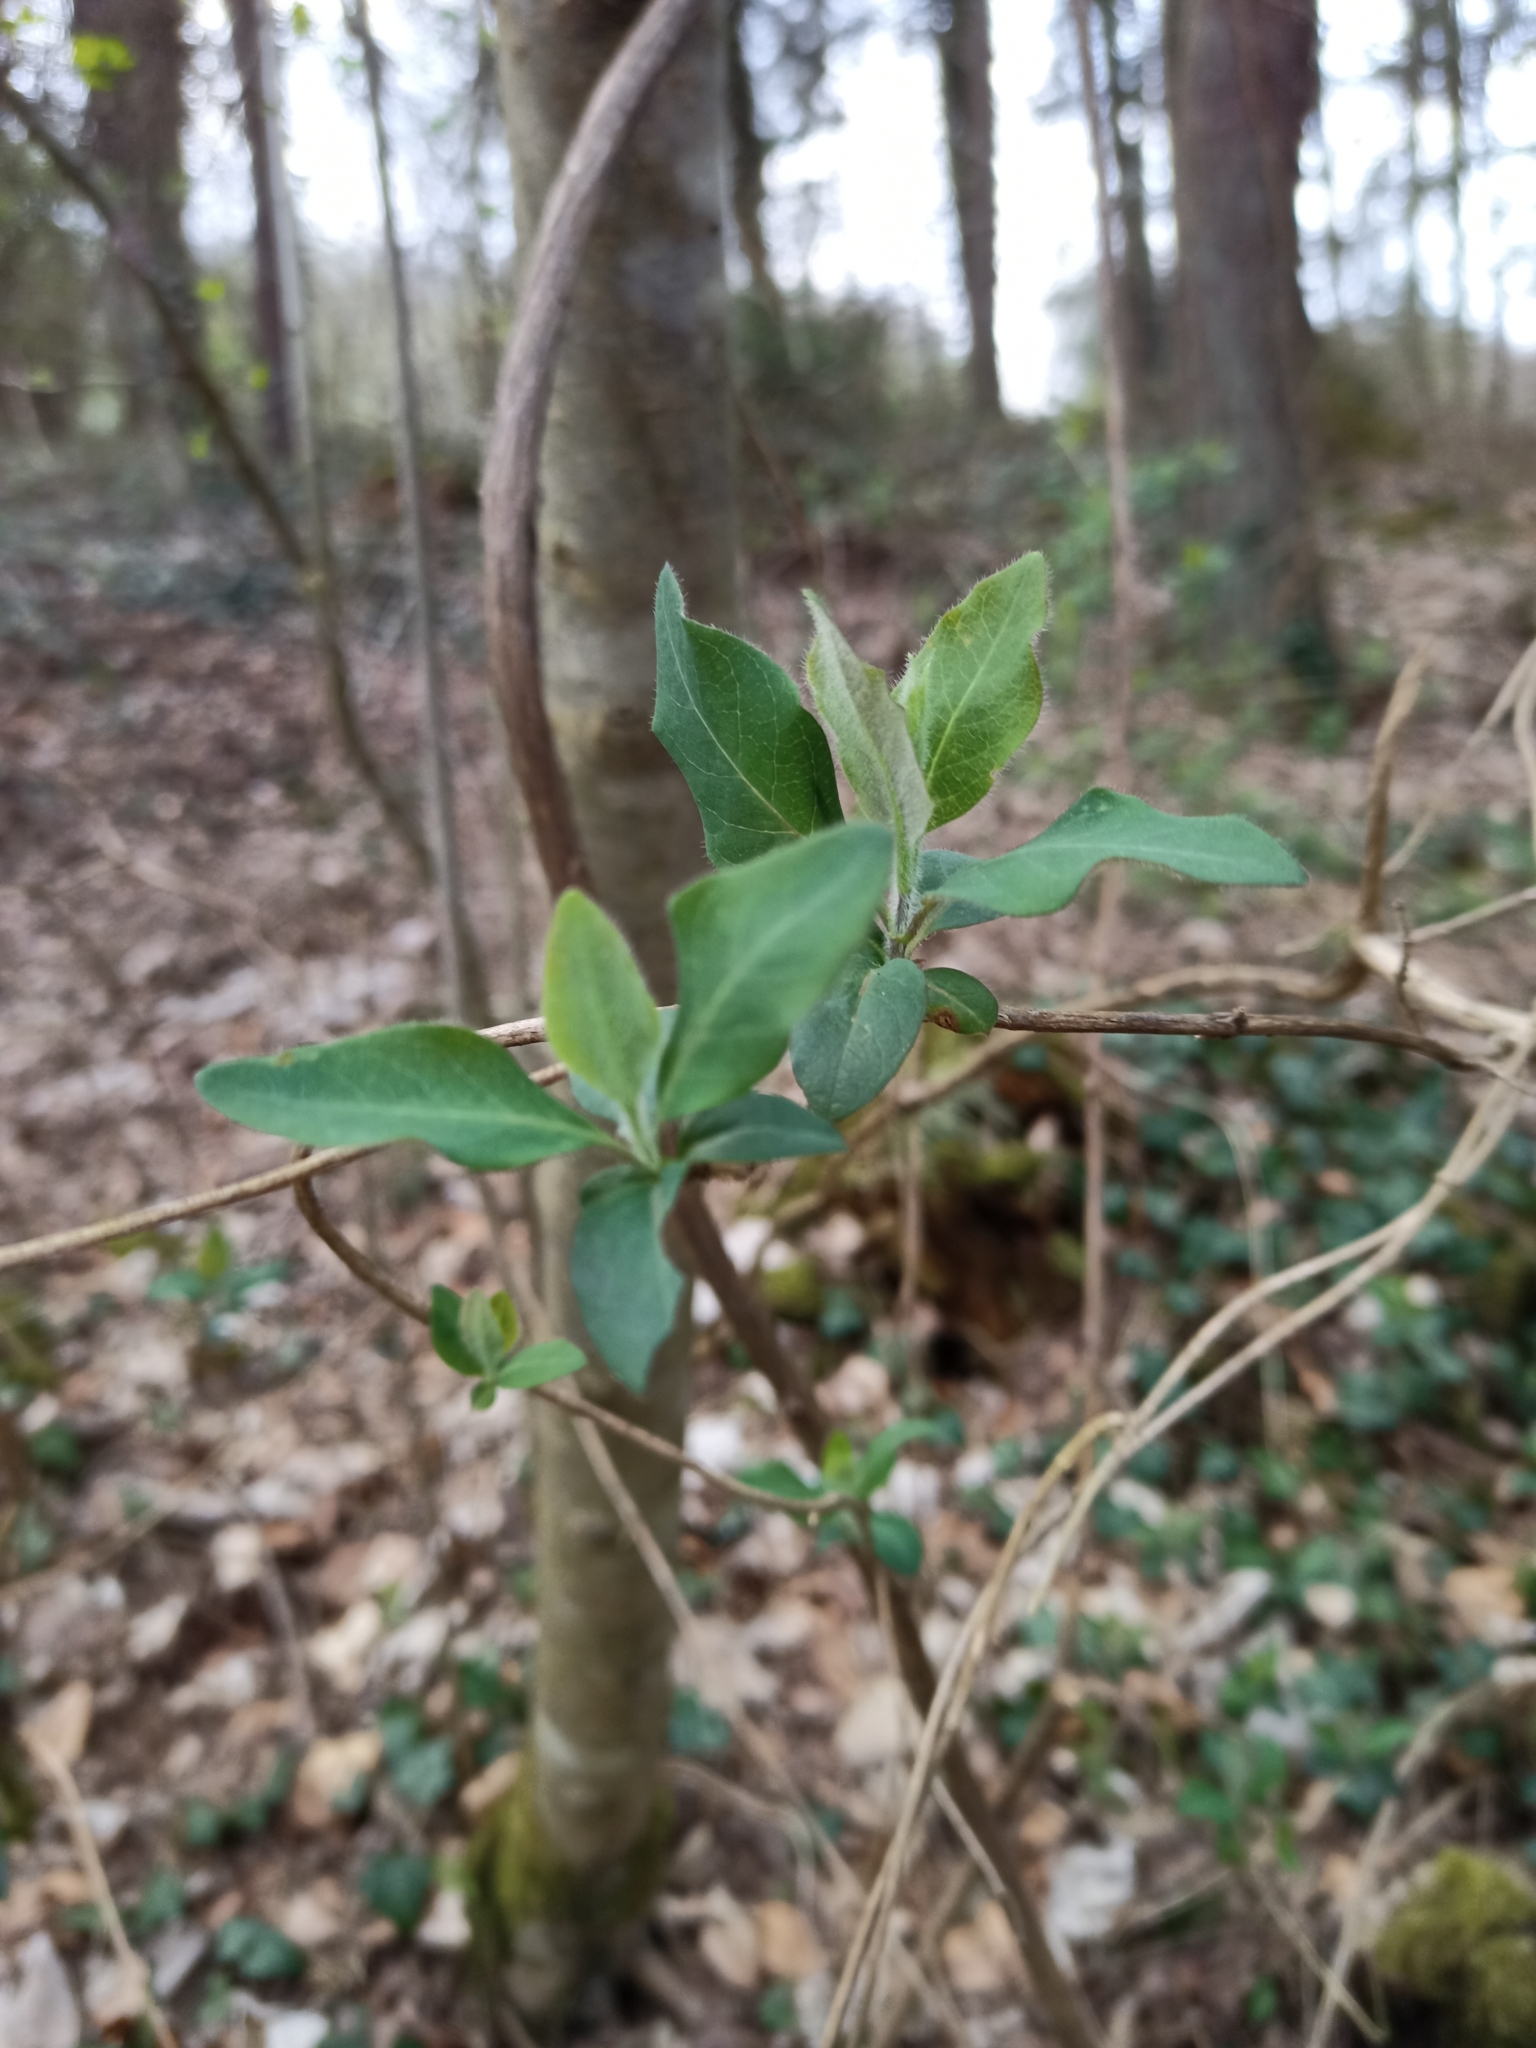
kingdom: Plantae
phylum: Tracheophyta
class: Magnoliopsida
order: Dipsacales
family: Caprifoliaceae
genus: Lonicera
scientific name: Lonicera periclymenum
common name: European honeysuckle
